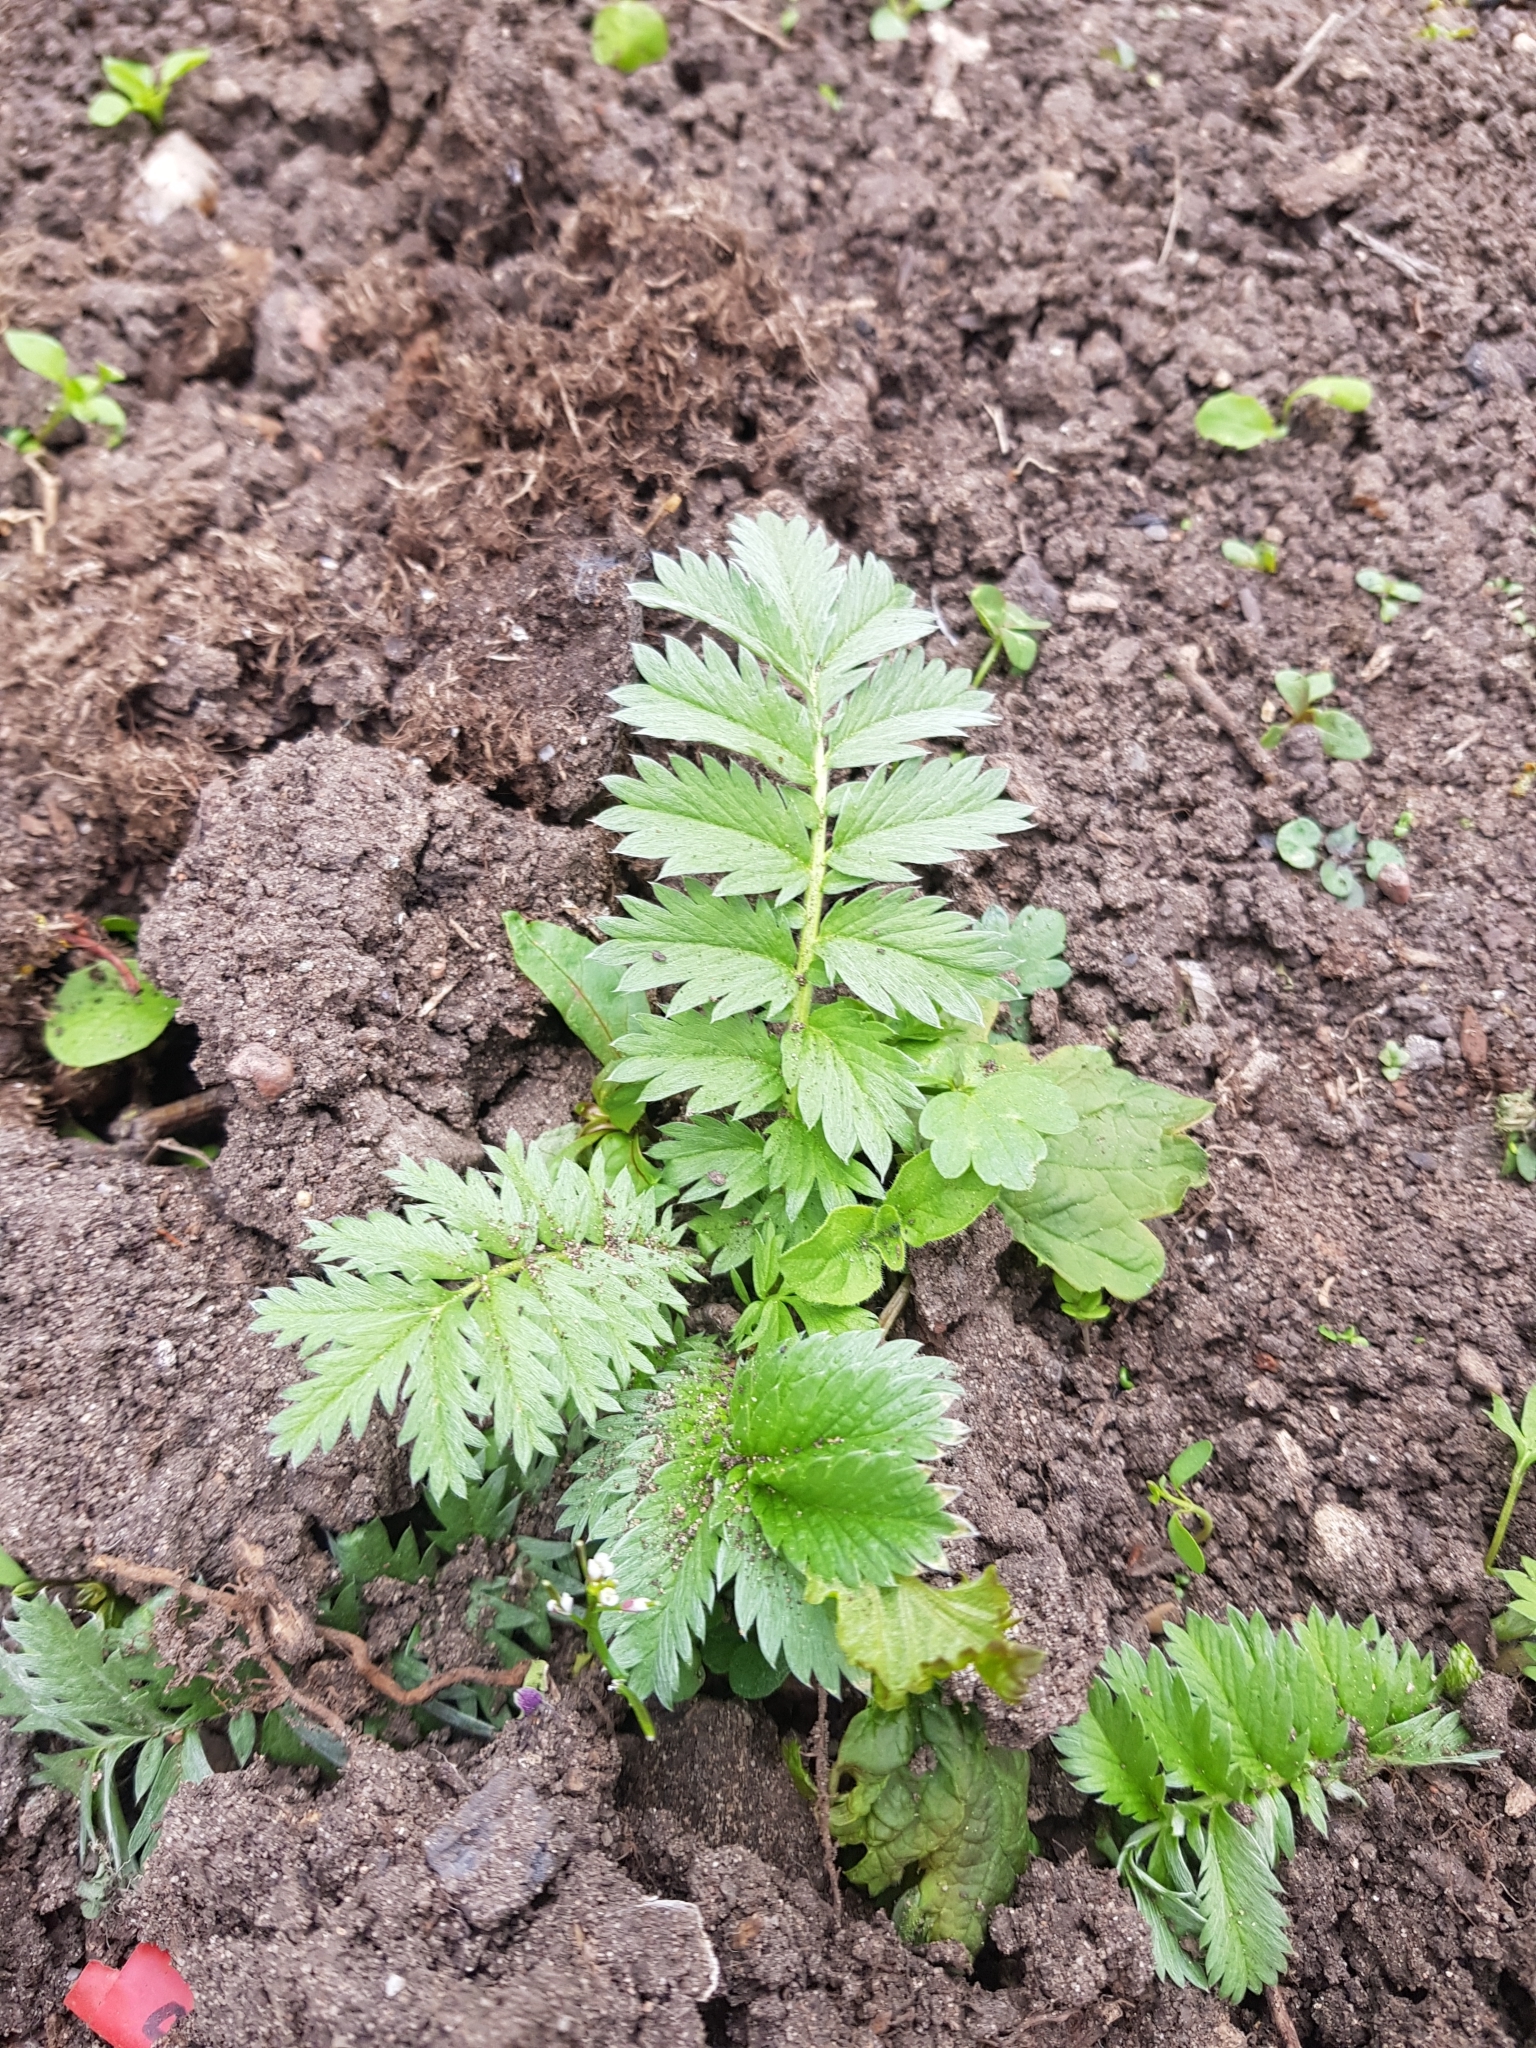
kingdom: Plantae
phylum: Tracheophyta
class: Magnoliopsida
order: Rosales
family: Rosaceae
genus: Argentina
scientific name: Argentina anserina
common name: Common silverweed
